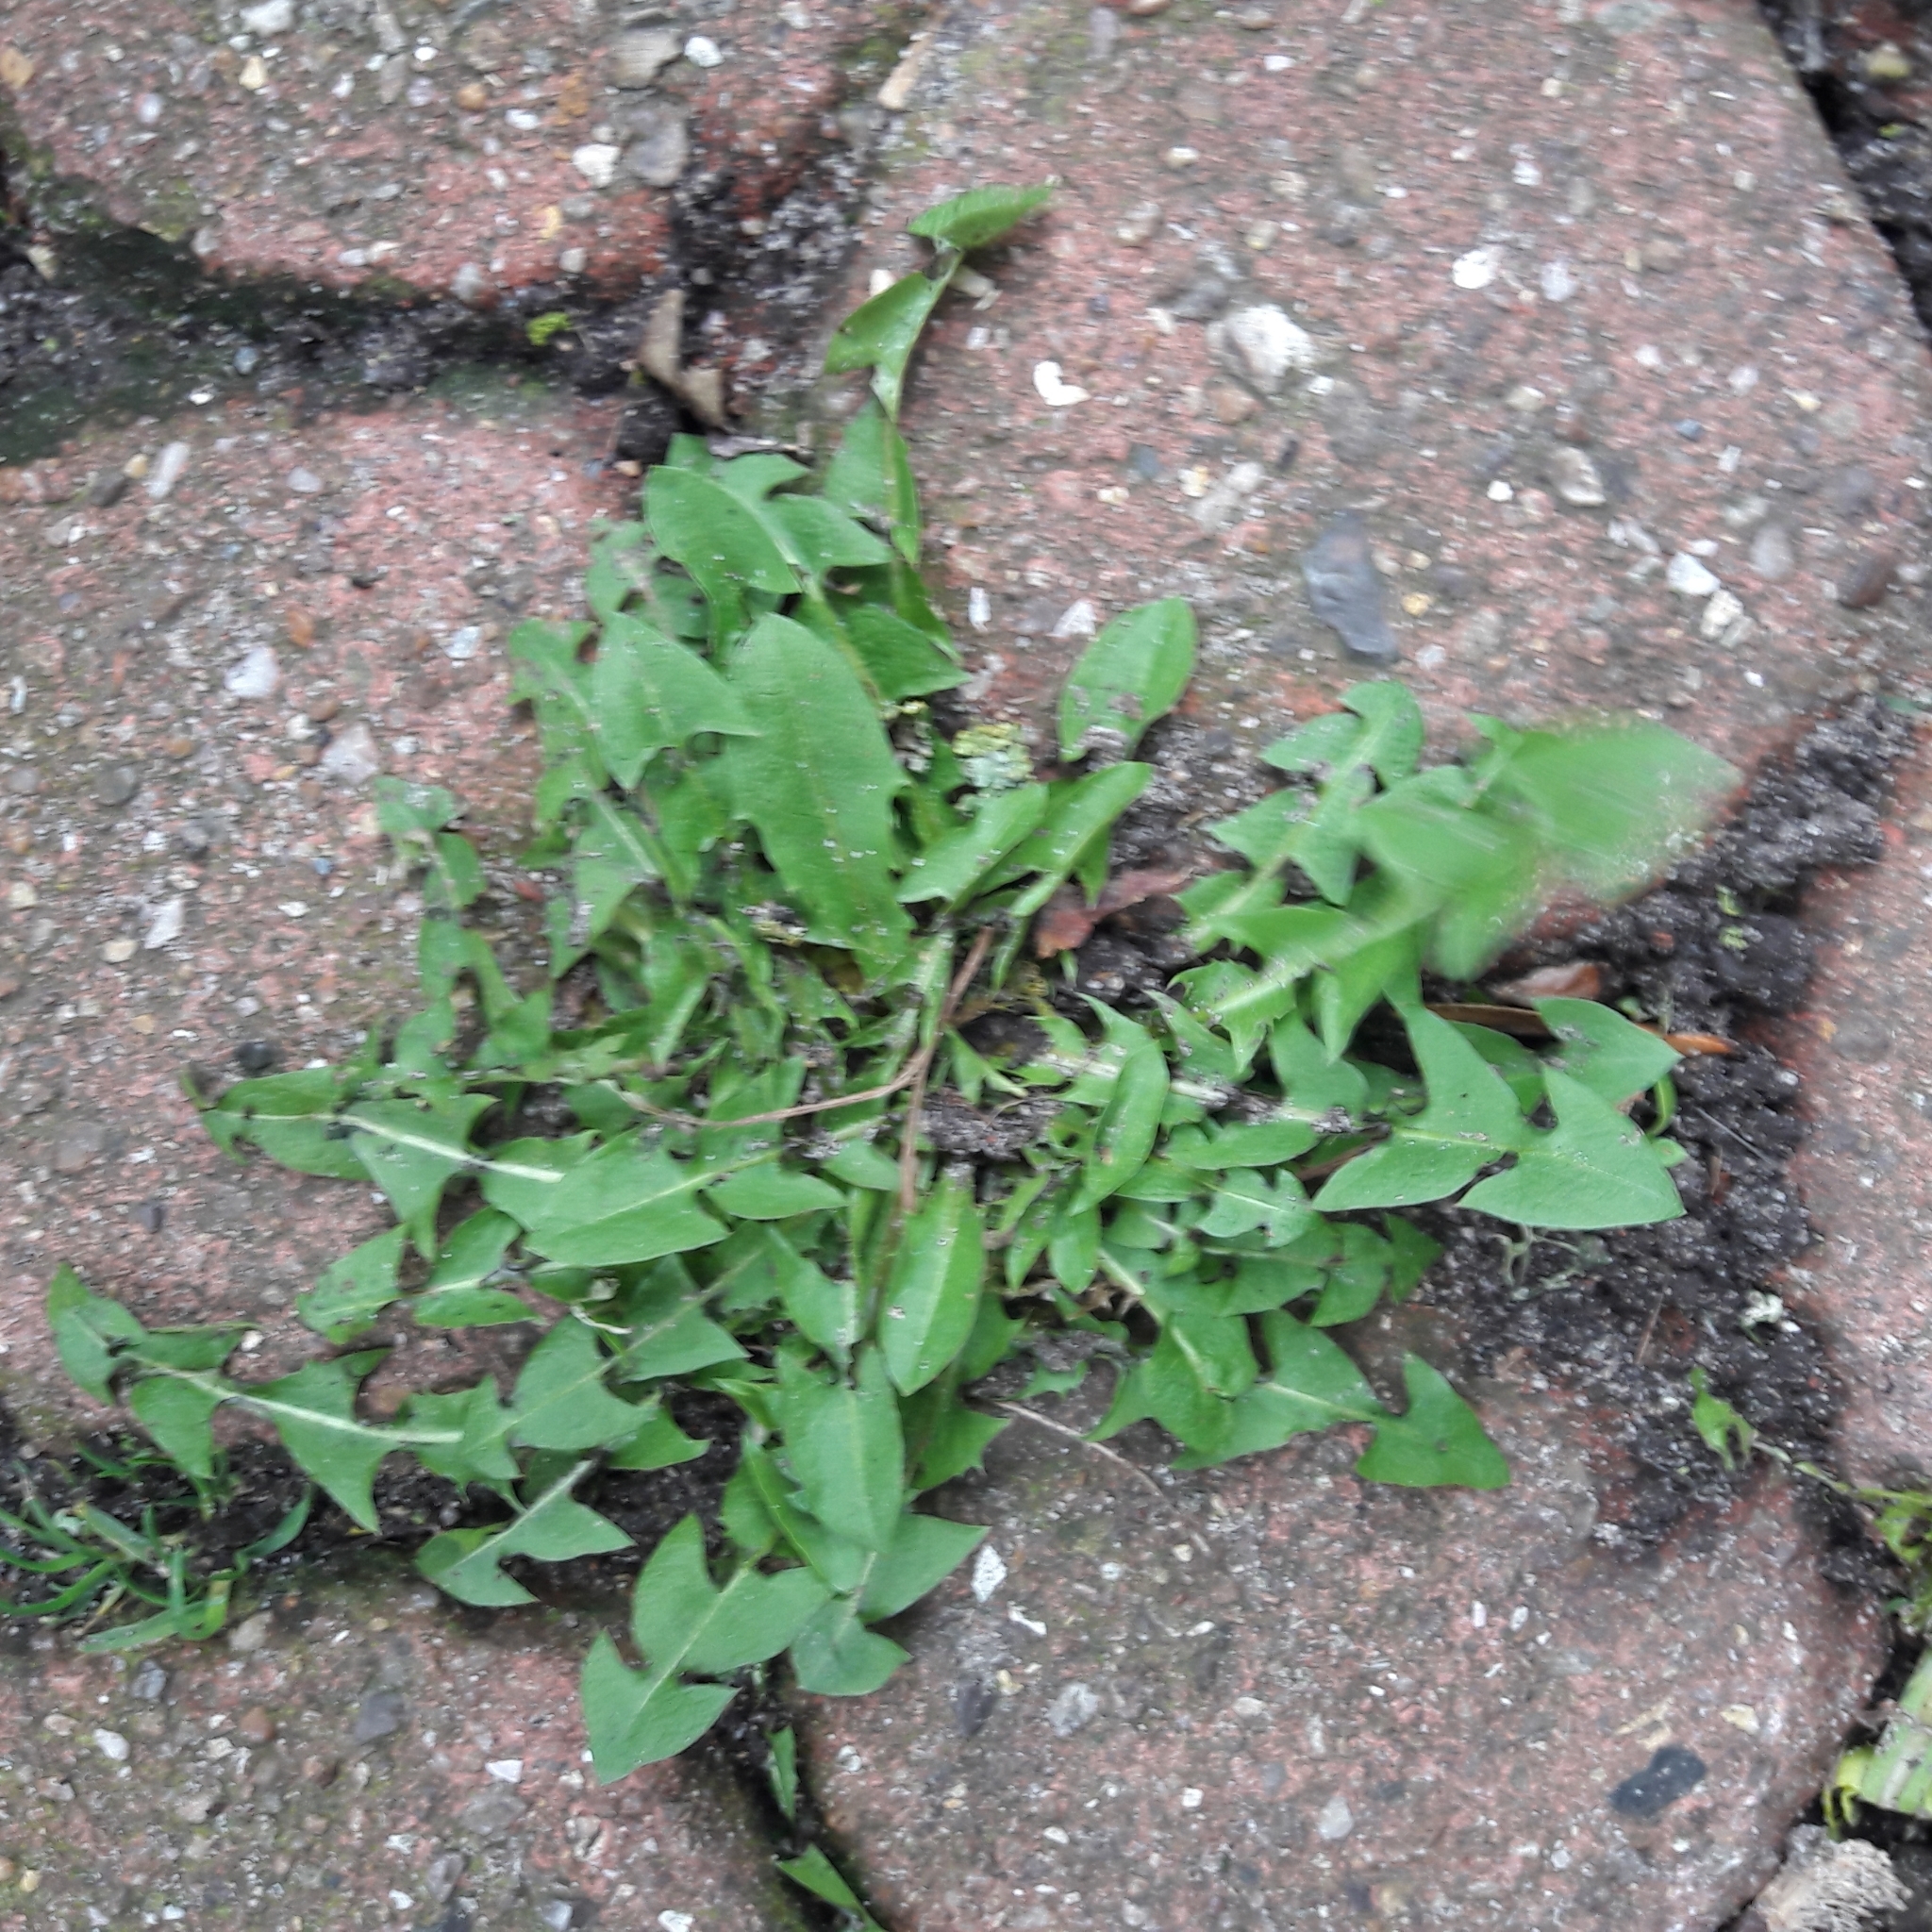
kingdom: Plantae
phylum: Tracheophyta
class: Magnoliopsida
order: Asterales
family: Asteraceae
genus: Taraxacum
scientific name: Taraxacum officinale
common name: Common dandelion
